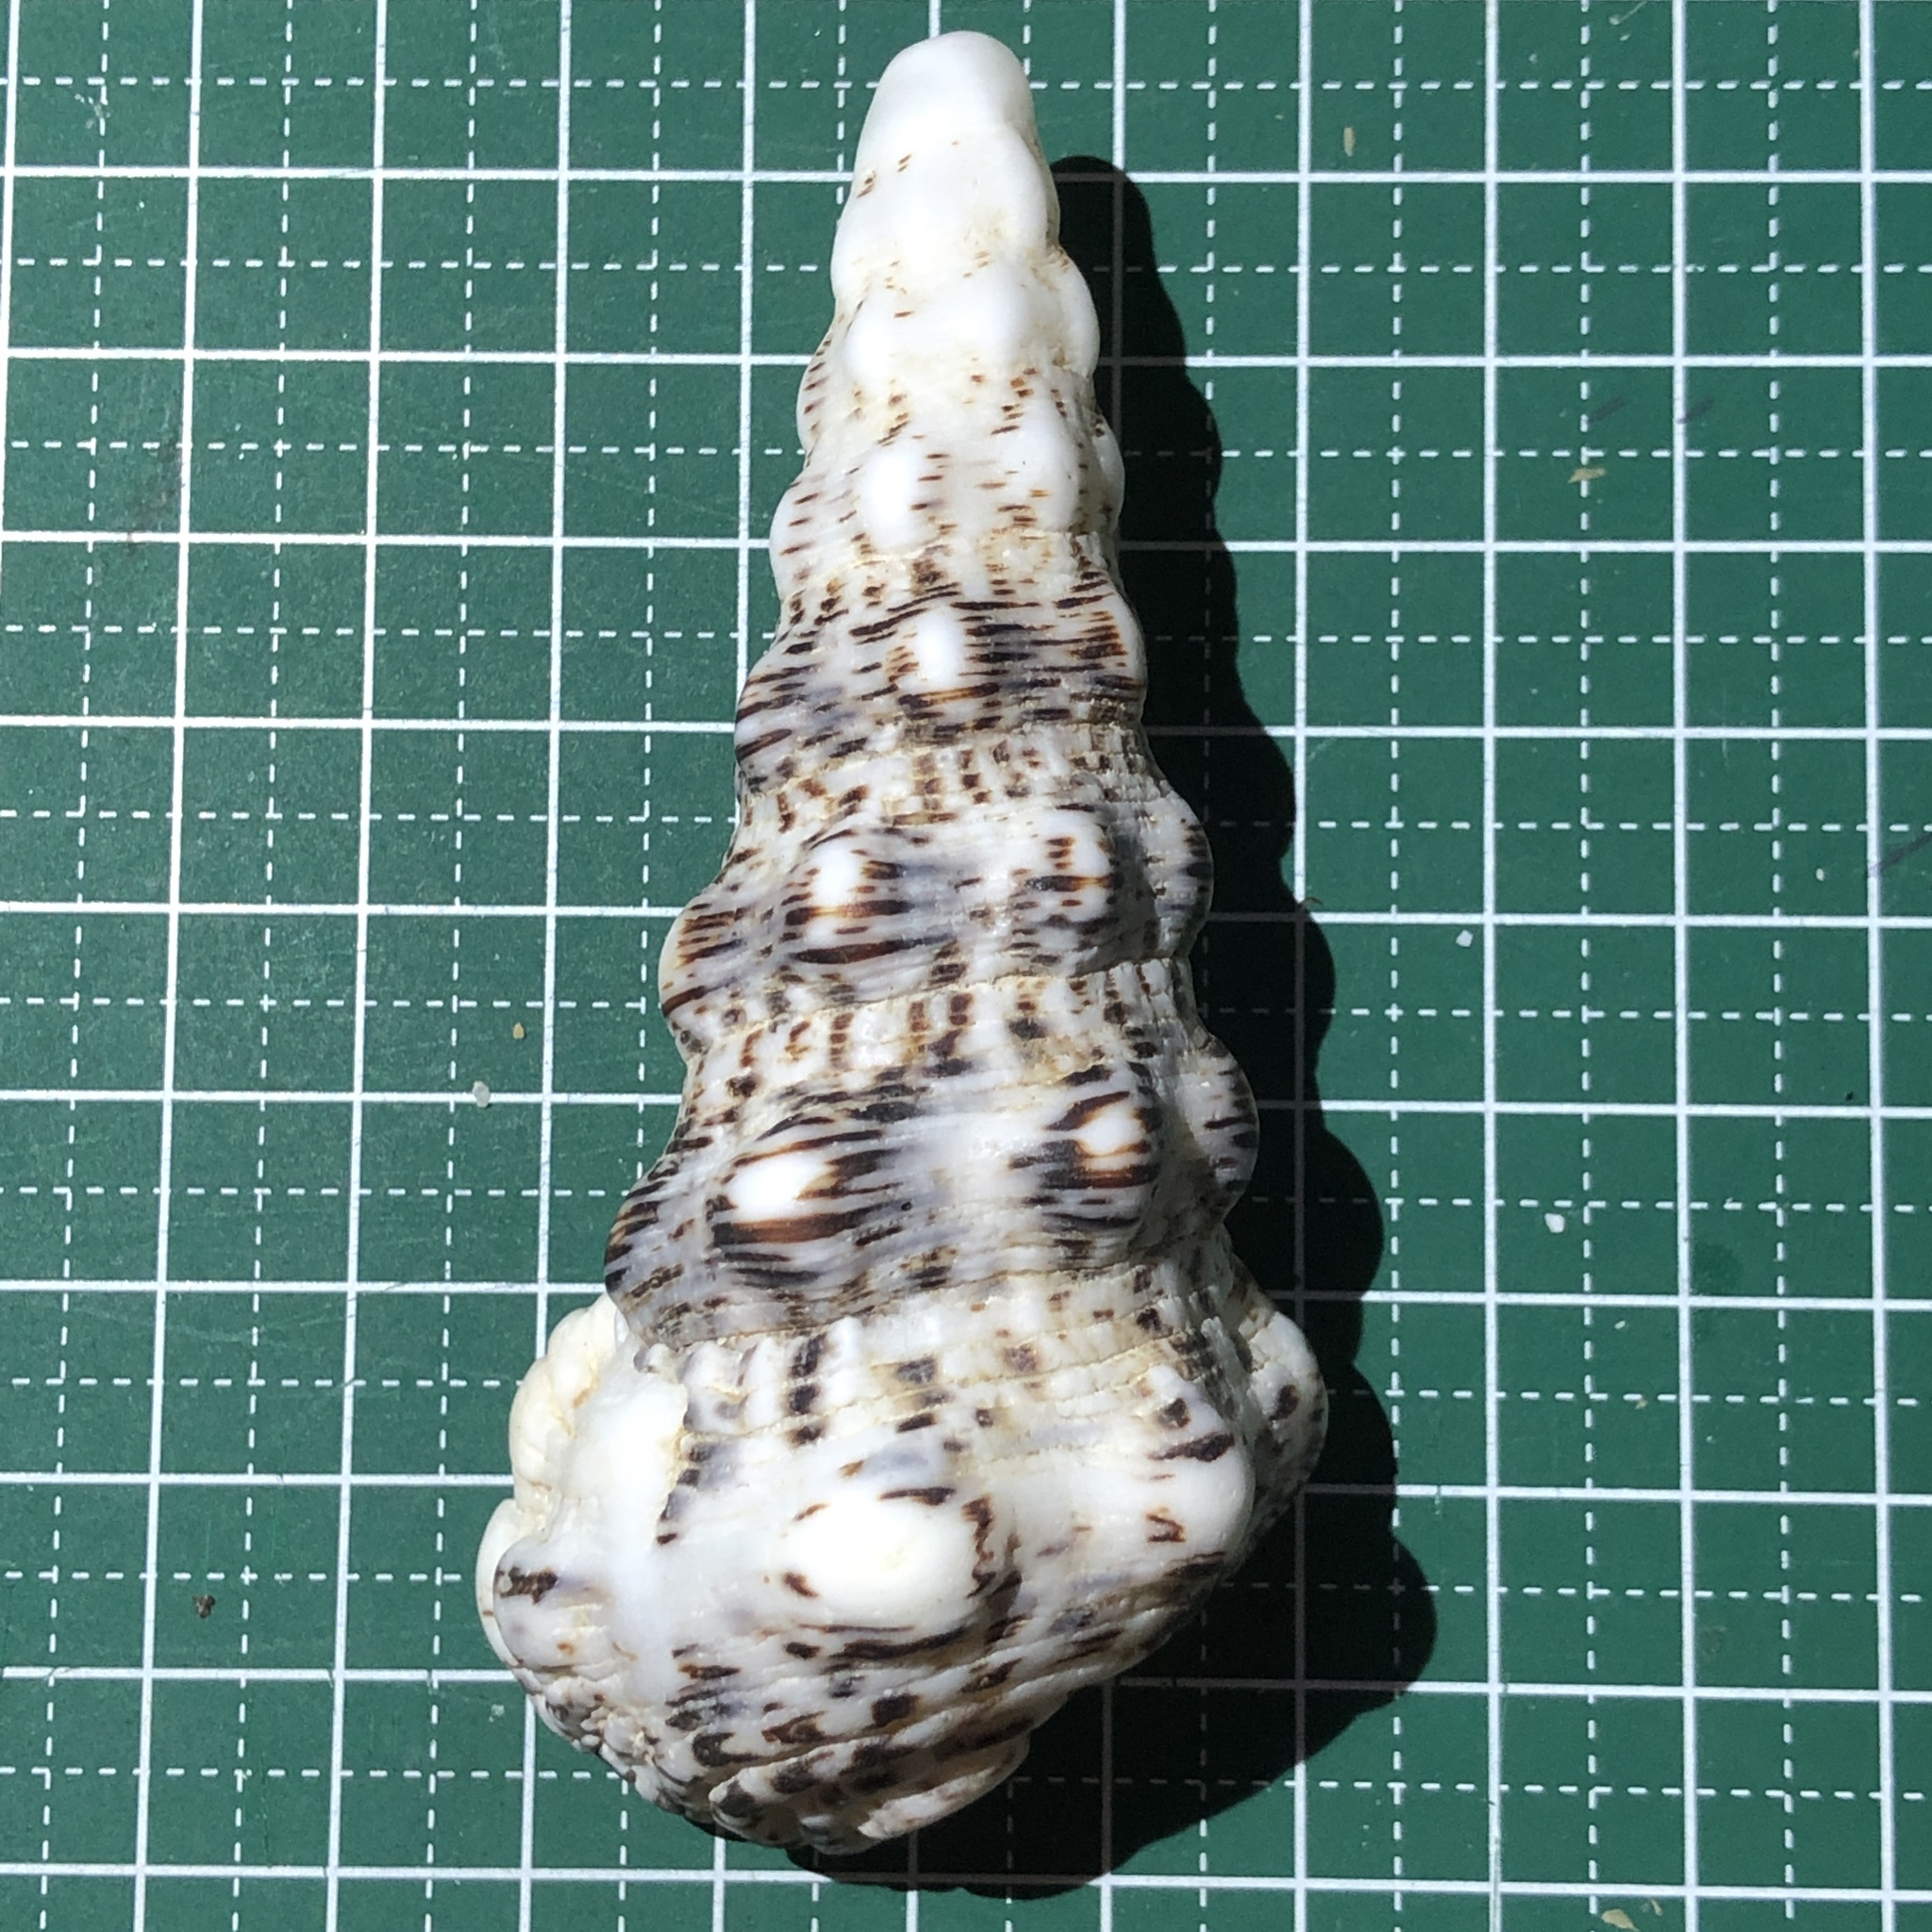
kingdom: Animalia
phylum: Mollusca
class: Gastropoda
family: Cerithiidae
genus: Cerithium
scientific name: Cerithium nodulosum
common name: Nadelschnecke giant knobbed cerith
